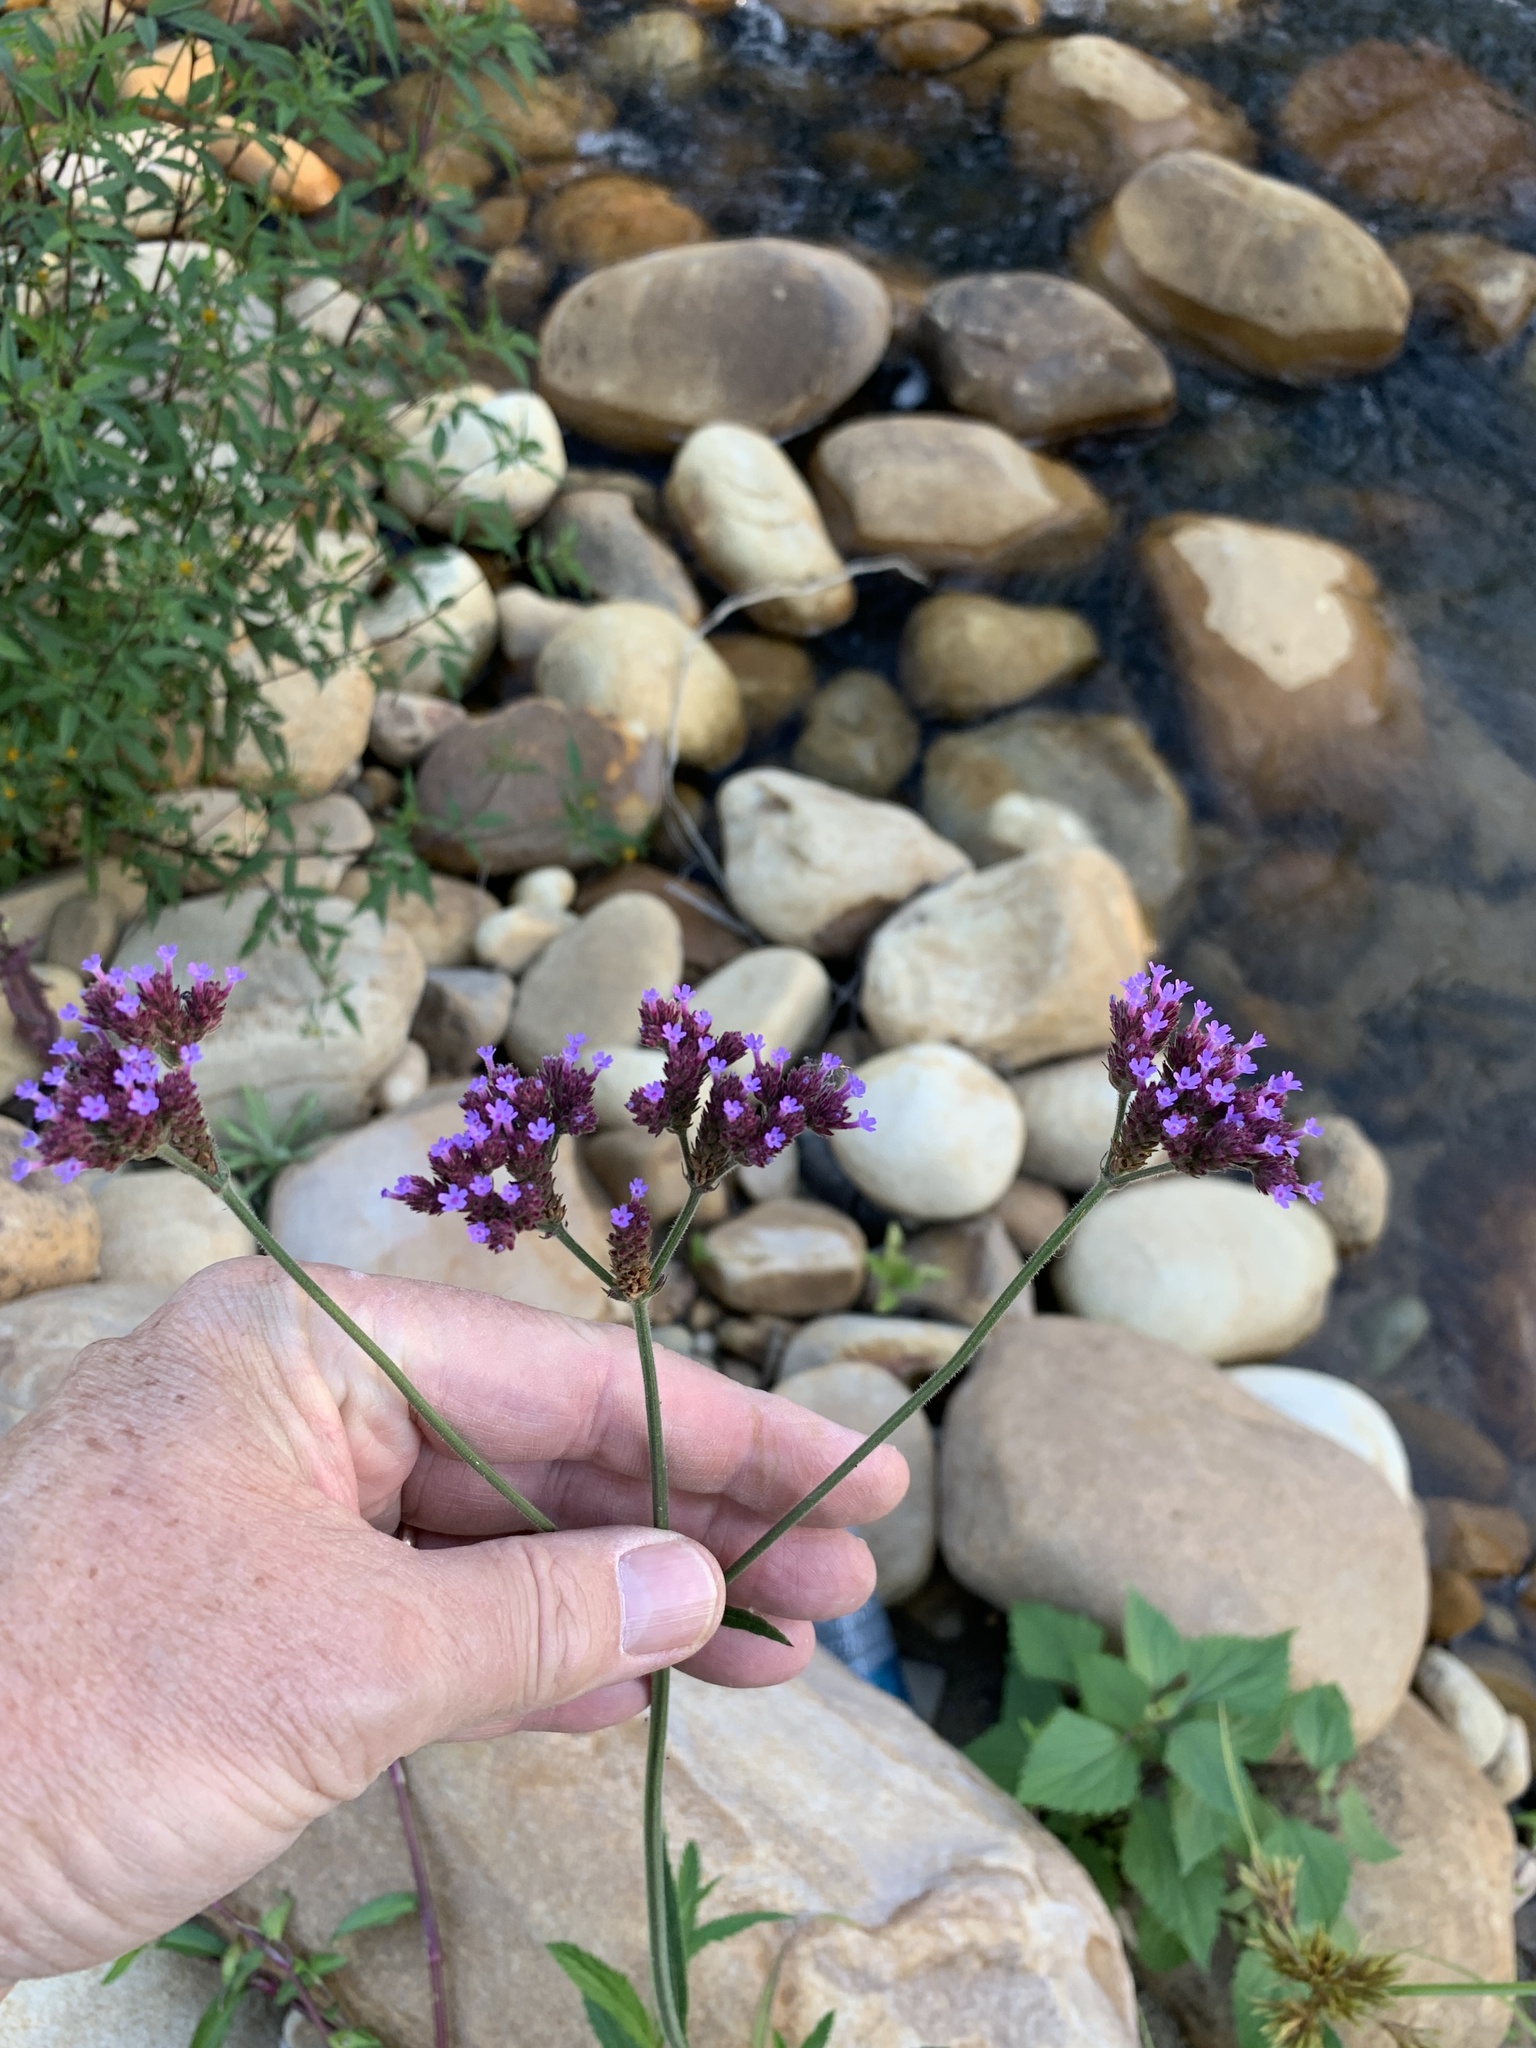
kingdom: Plantae
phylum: Tracheophyta
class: Magnoliopsida
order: Lamiales
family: Verbenaceae
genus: Verbena
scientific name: Verbena bonariensis
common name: Purpletop vervain
